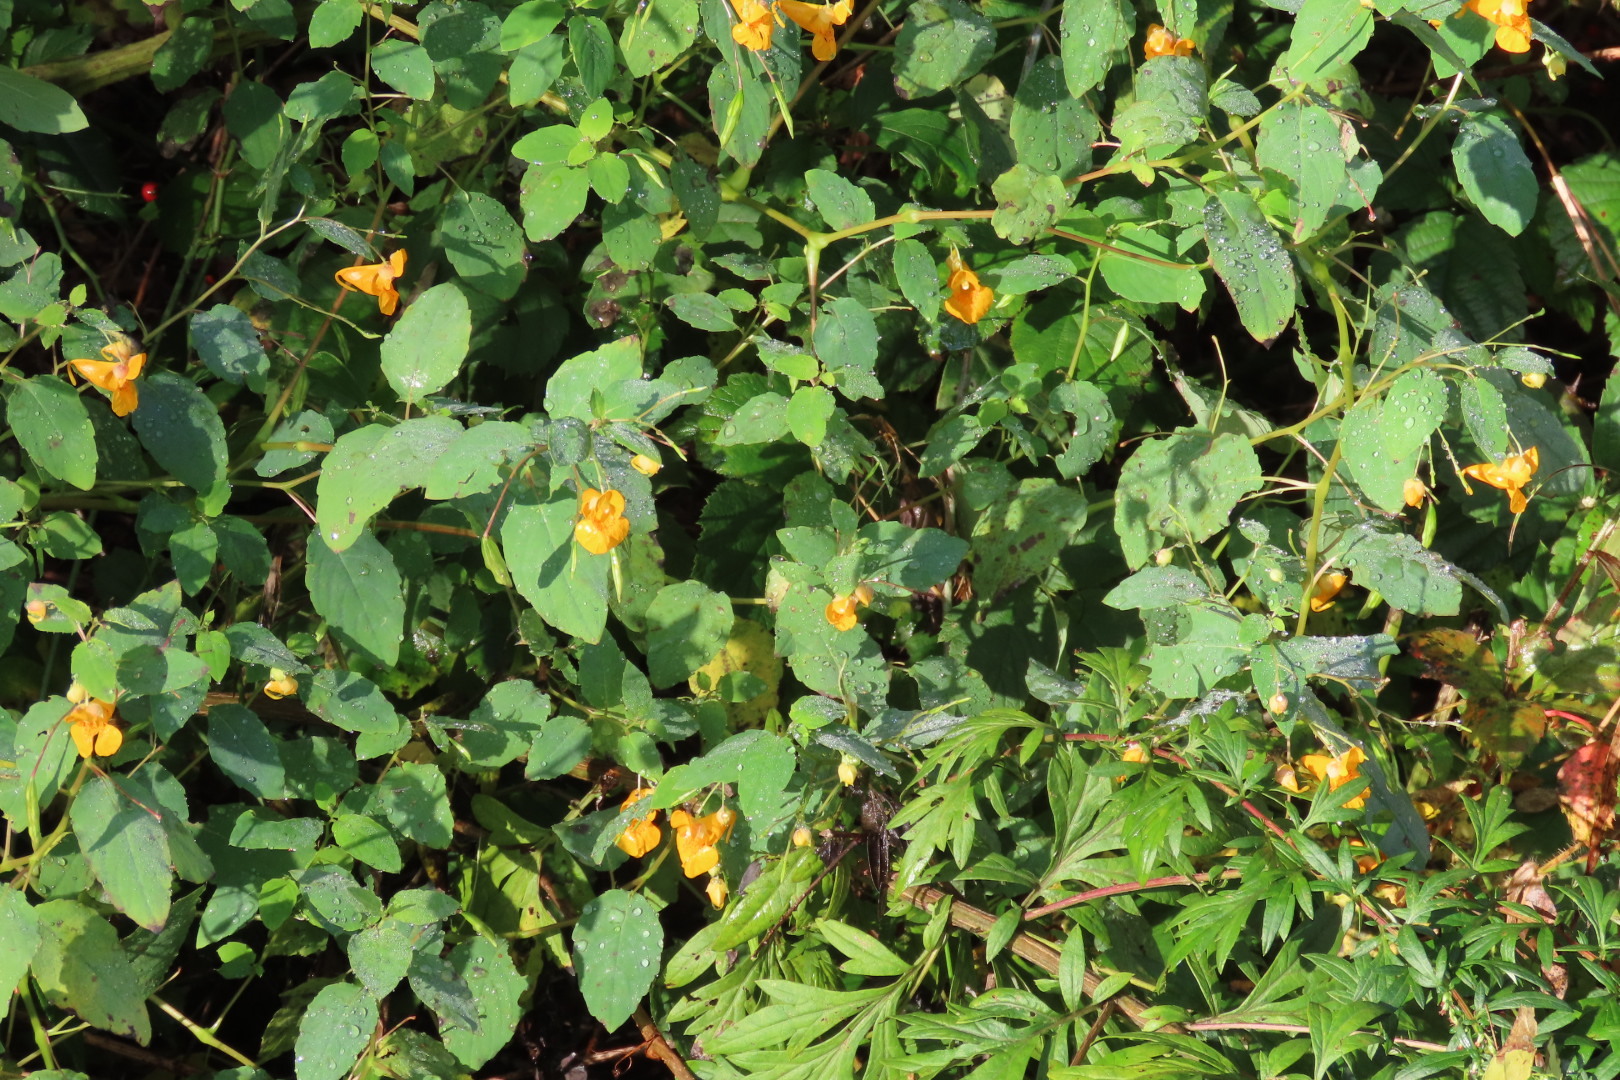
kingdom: Plantae
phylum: Tracheophyta
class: Magnoliopsida
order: Ericales
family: Balsaminaceae
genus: Impatiens
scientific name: Impatiens capensis
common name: Orange balsam
